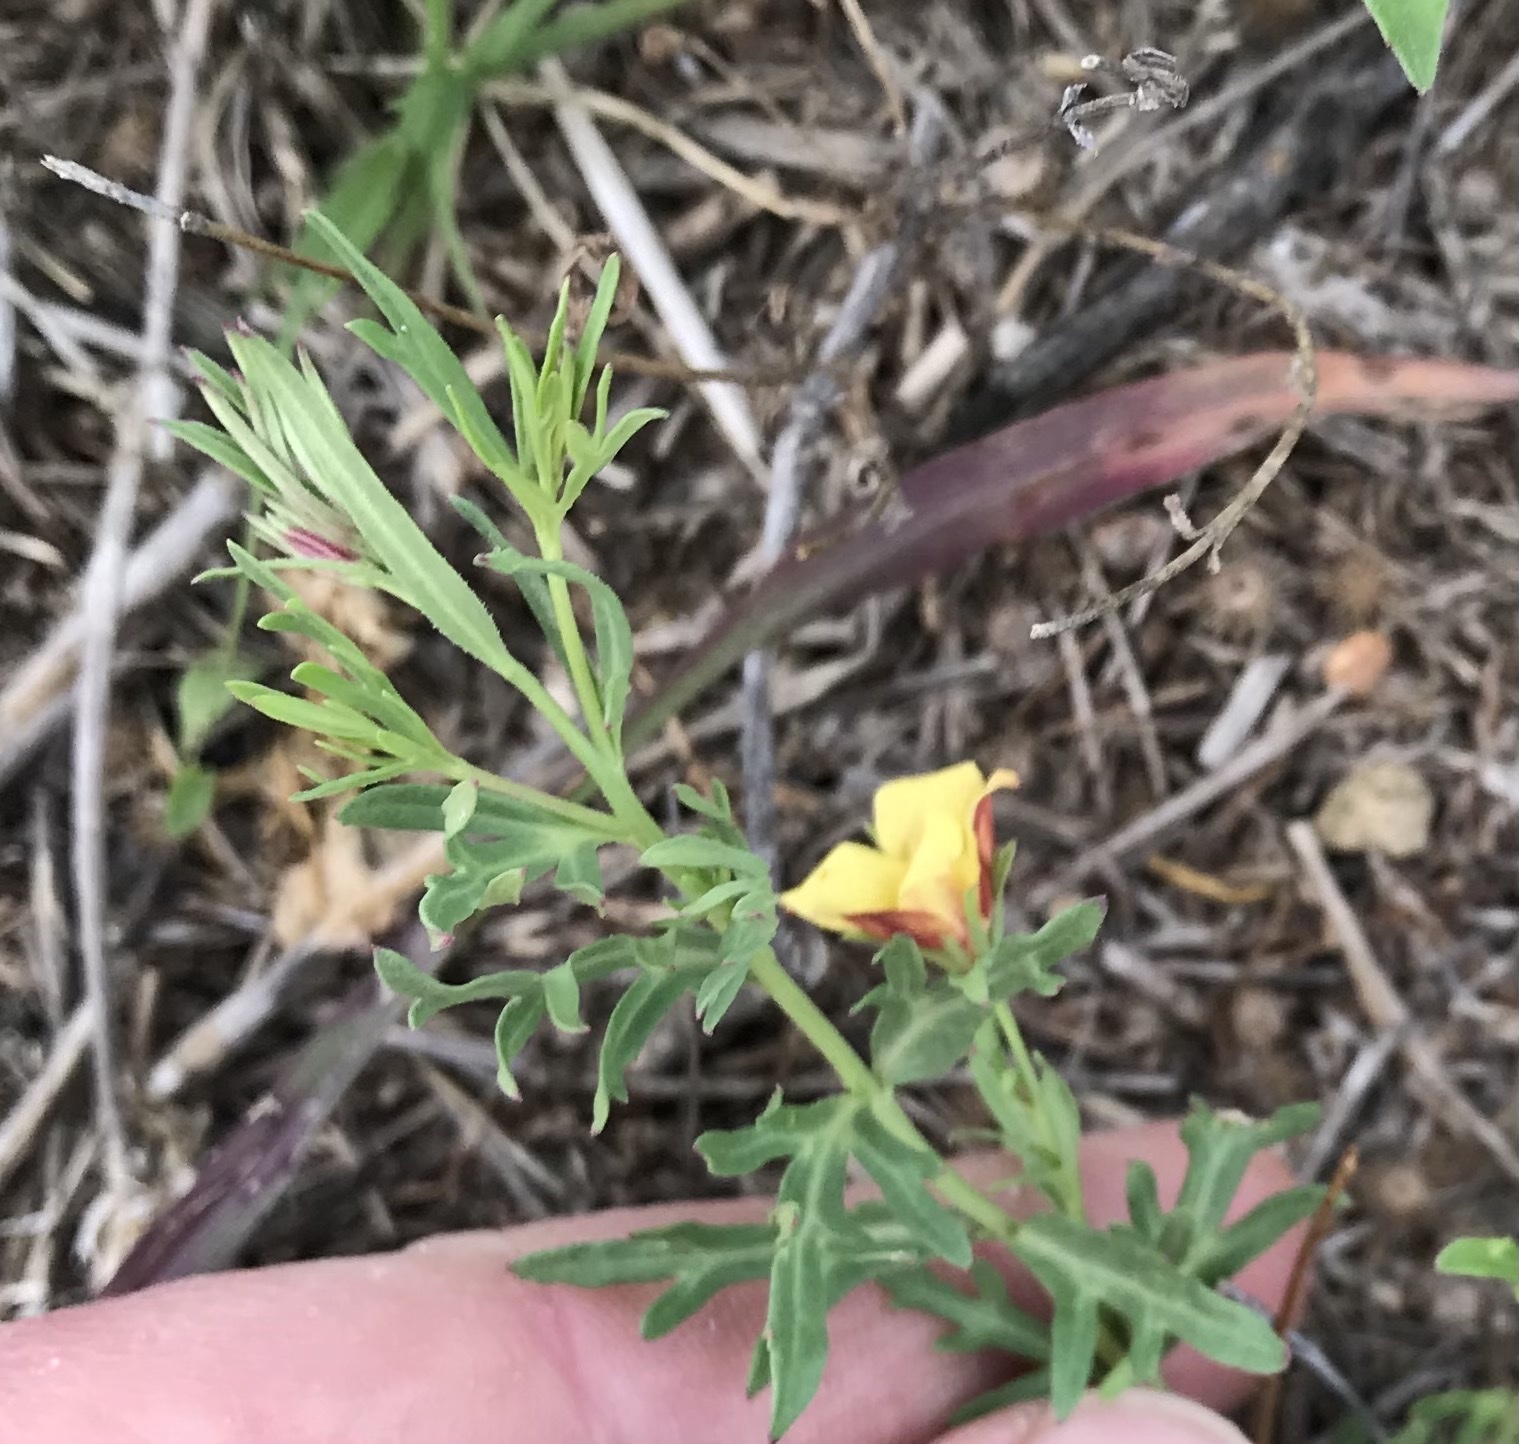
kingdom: Plantae
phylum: Tracheophyta
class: Magnoliopsida
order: Lamiales
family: Oleaceae
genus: Menodora
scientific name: Menodora heterophylla
